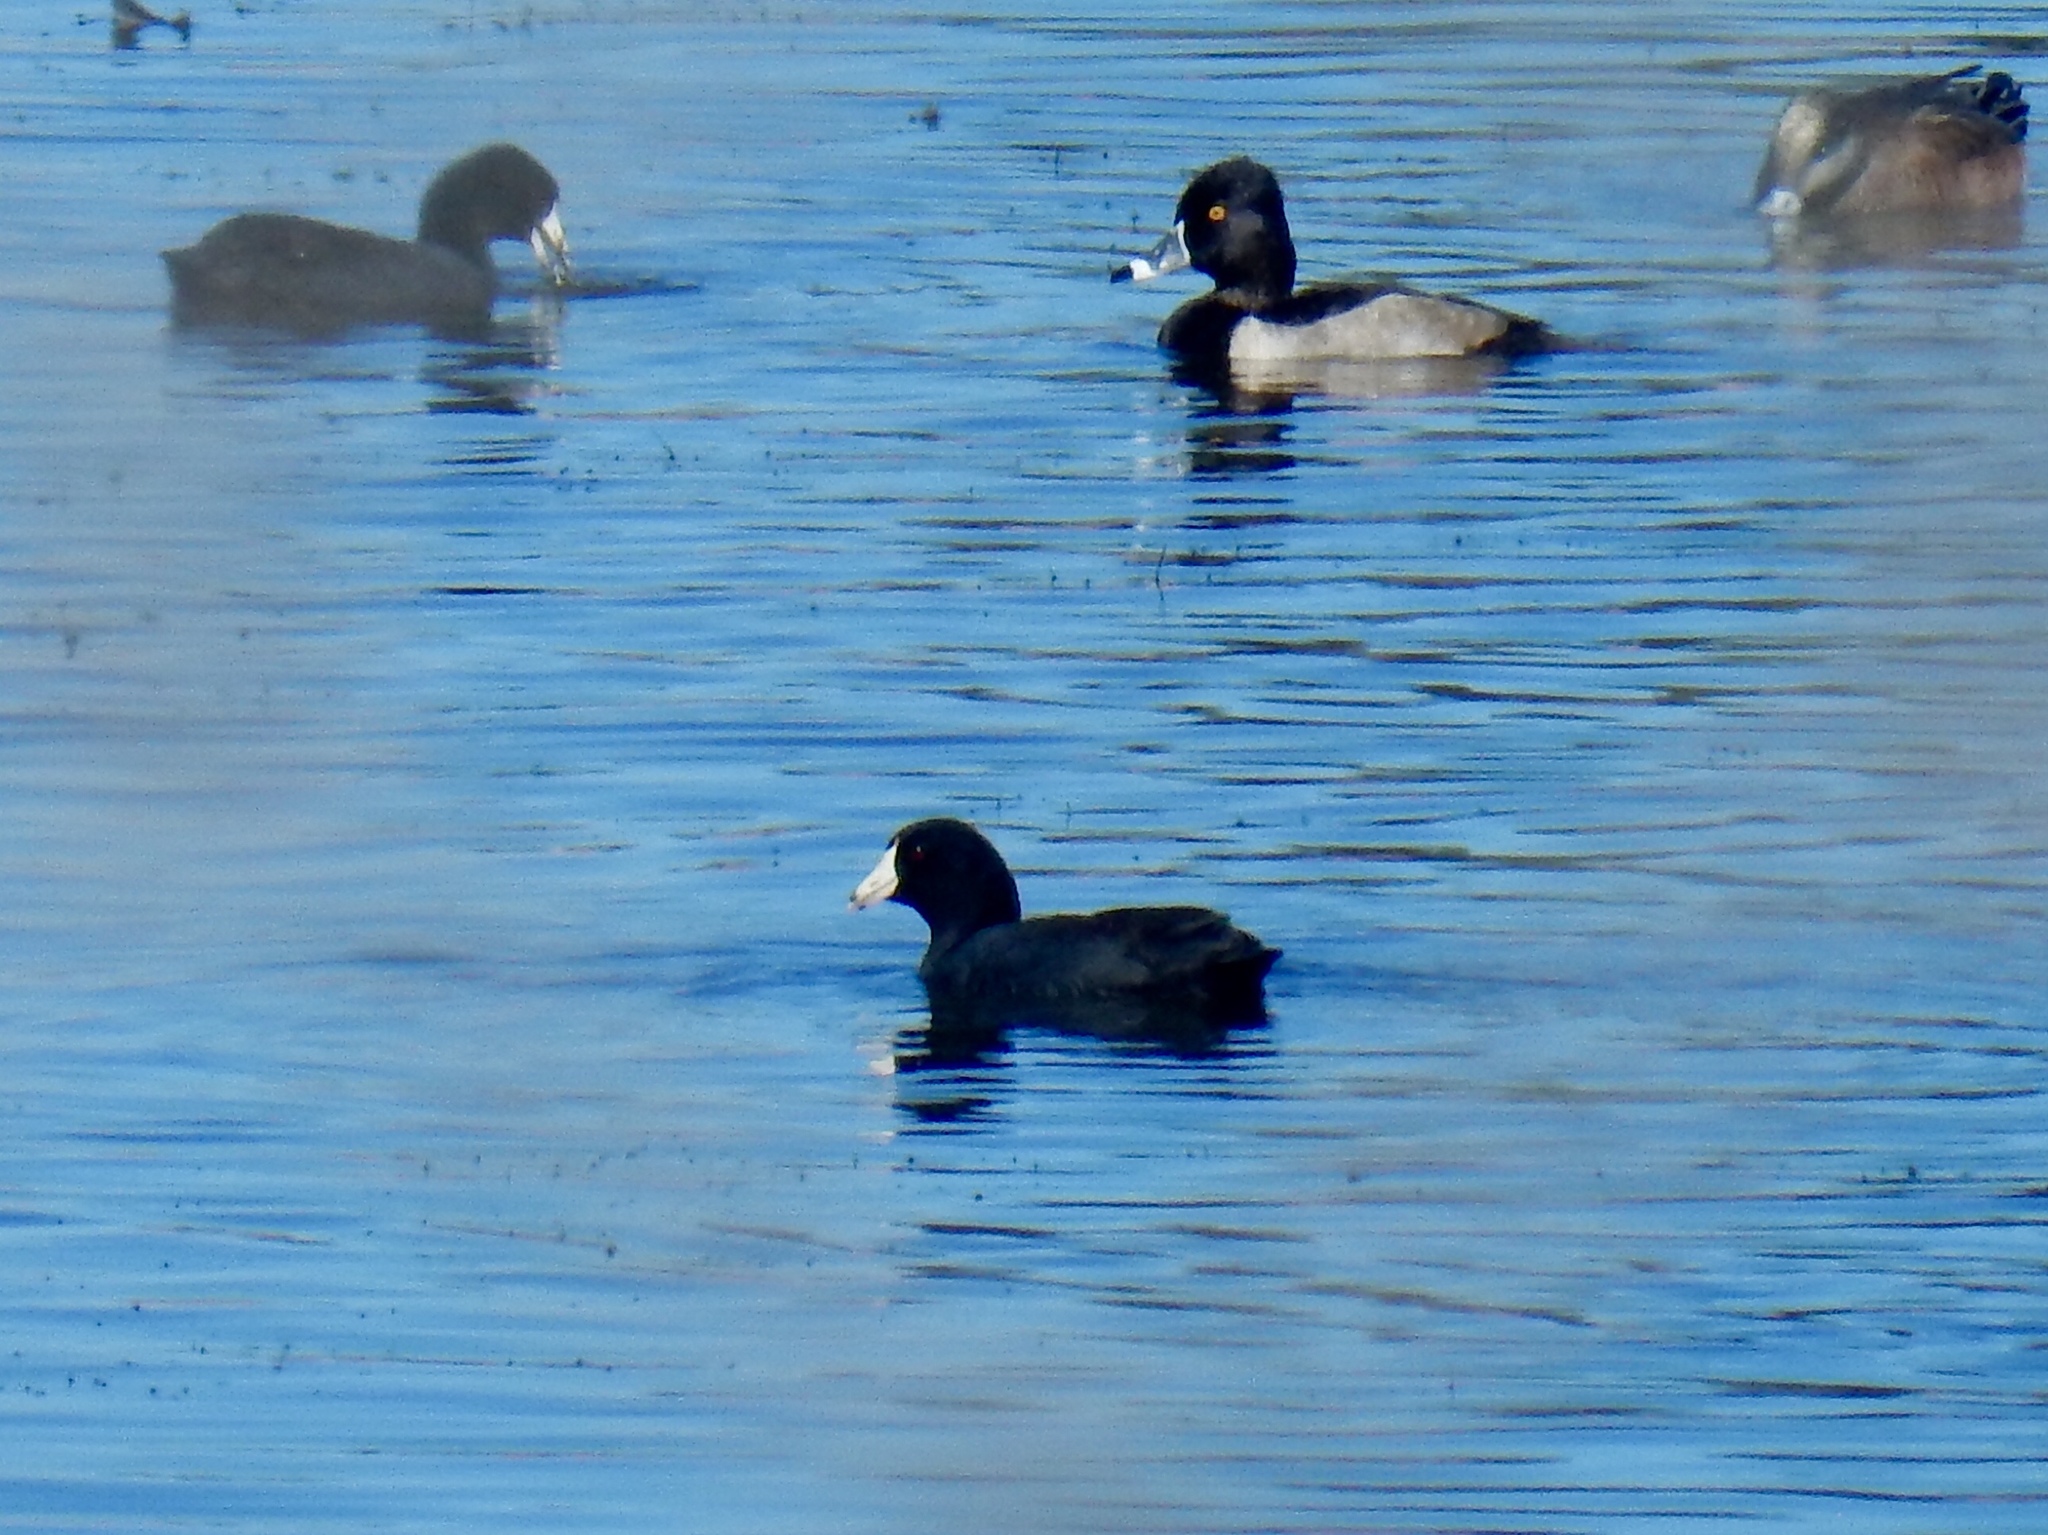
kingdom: Animalia
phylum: Chordata
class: Aves
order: Gruiformes
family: Rallidae
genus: Fulica
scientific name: Fulica americana
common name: American coot
